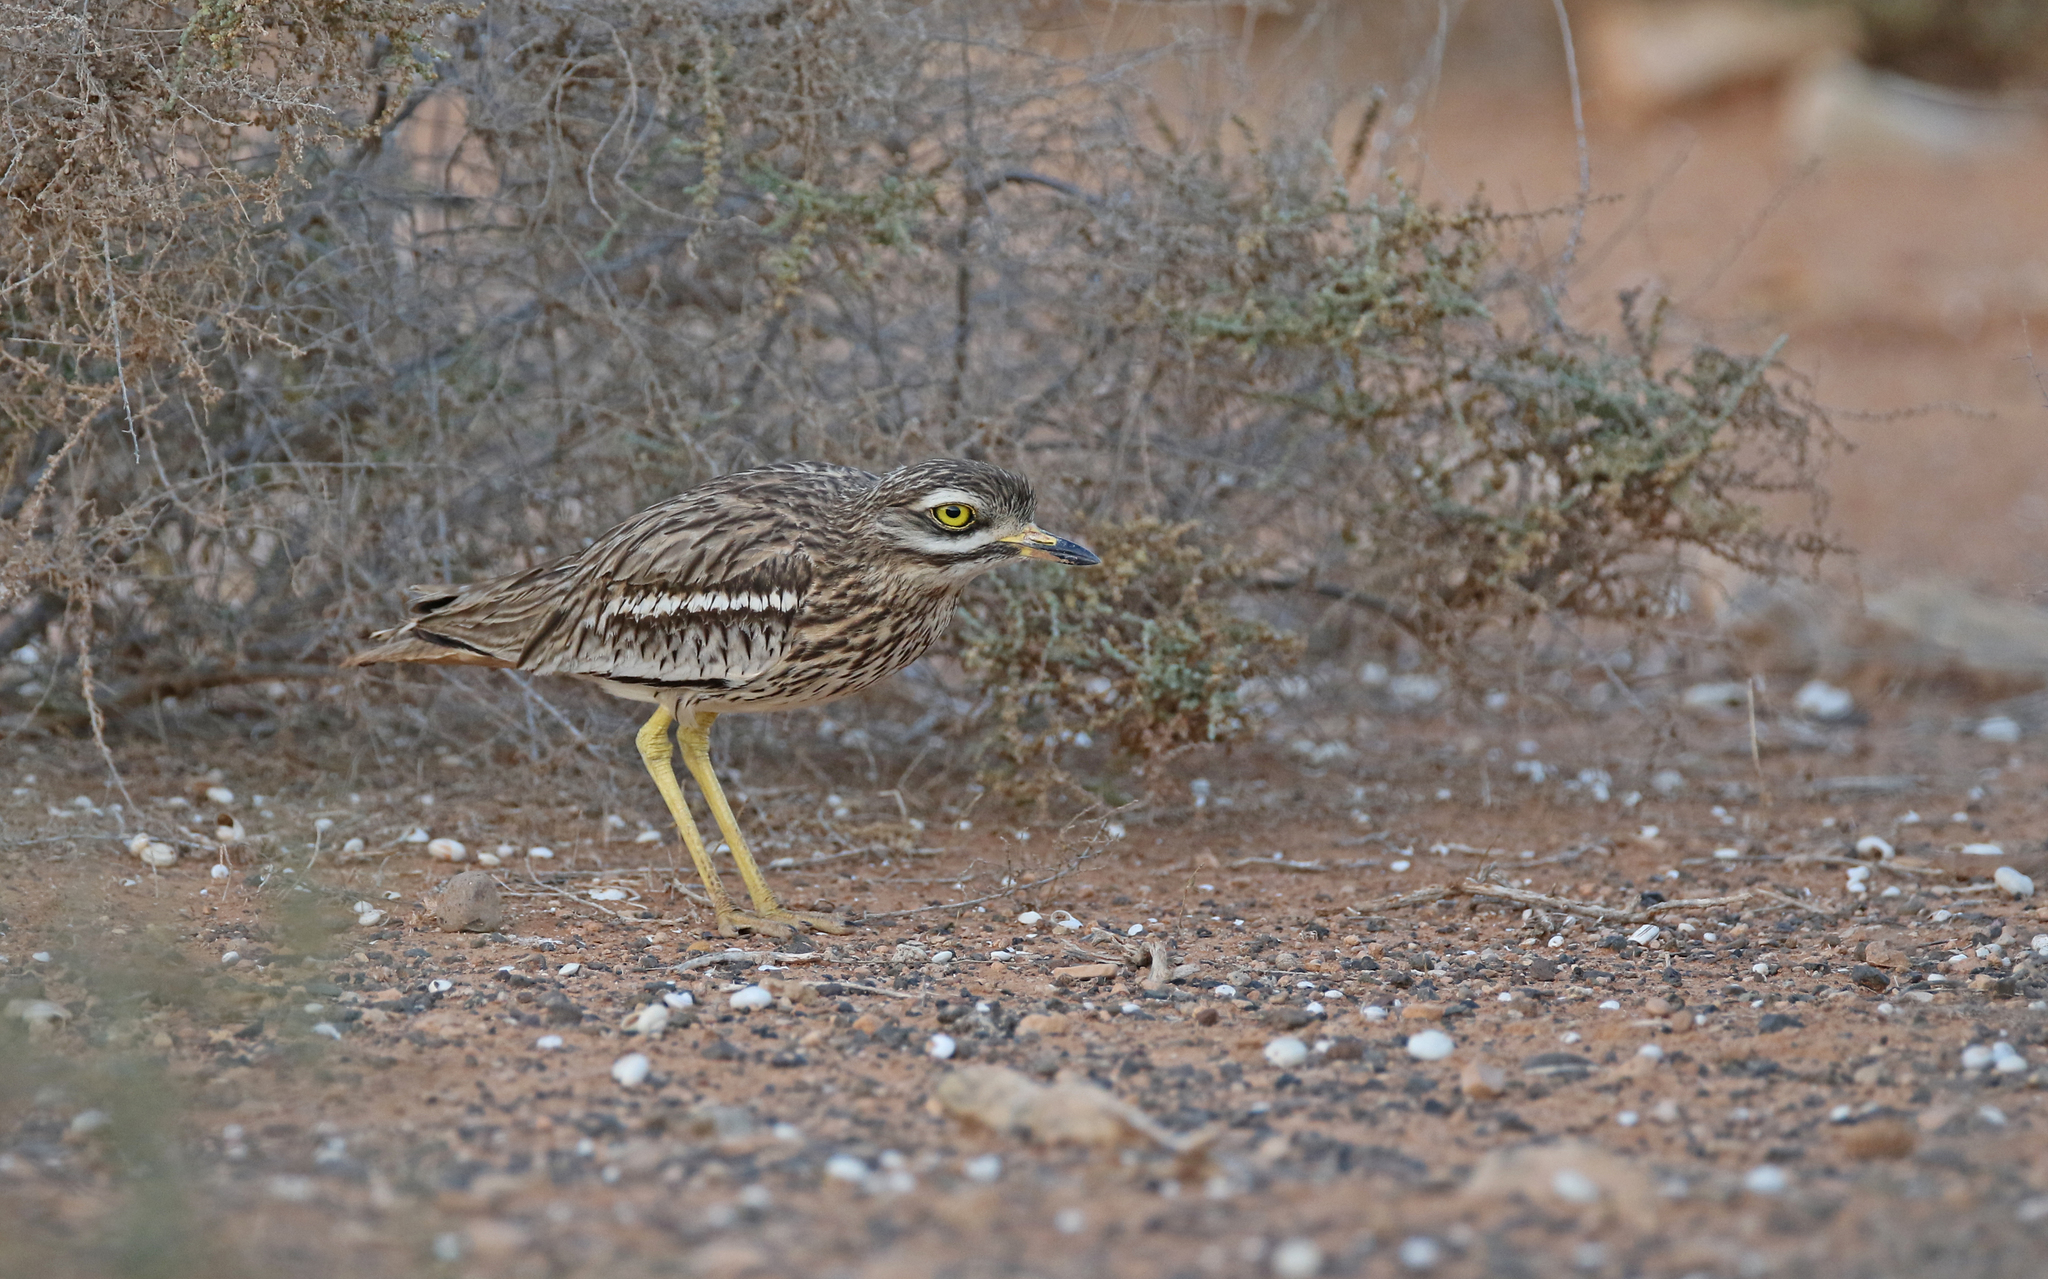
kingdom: Animalia
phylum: Chordata
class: Aves
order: Charadriiformes
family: Burhinidae
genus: Burhinus
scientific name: Burhinus oedicnemus
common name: Eurasian stone-curlew
